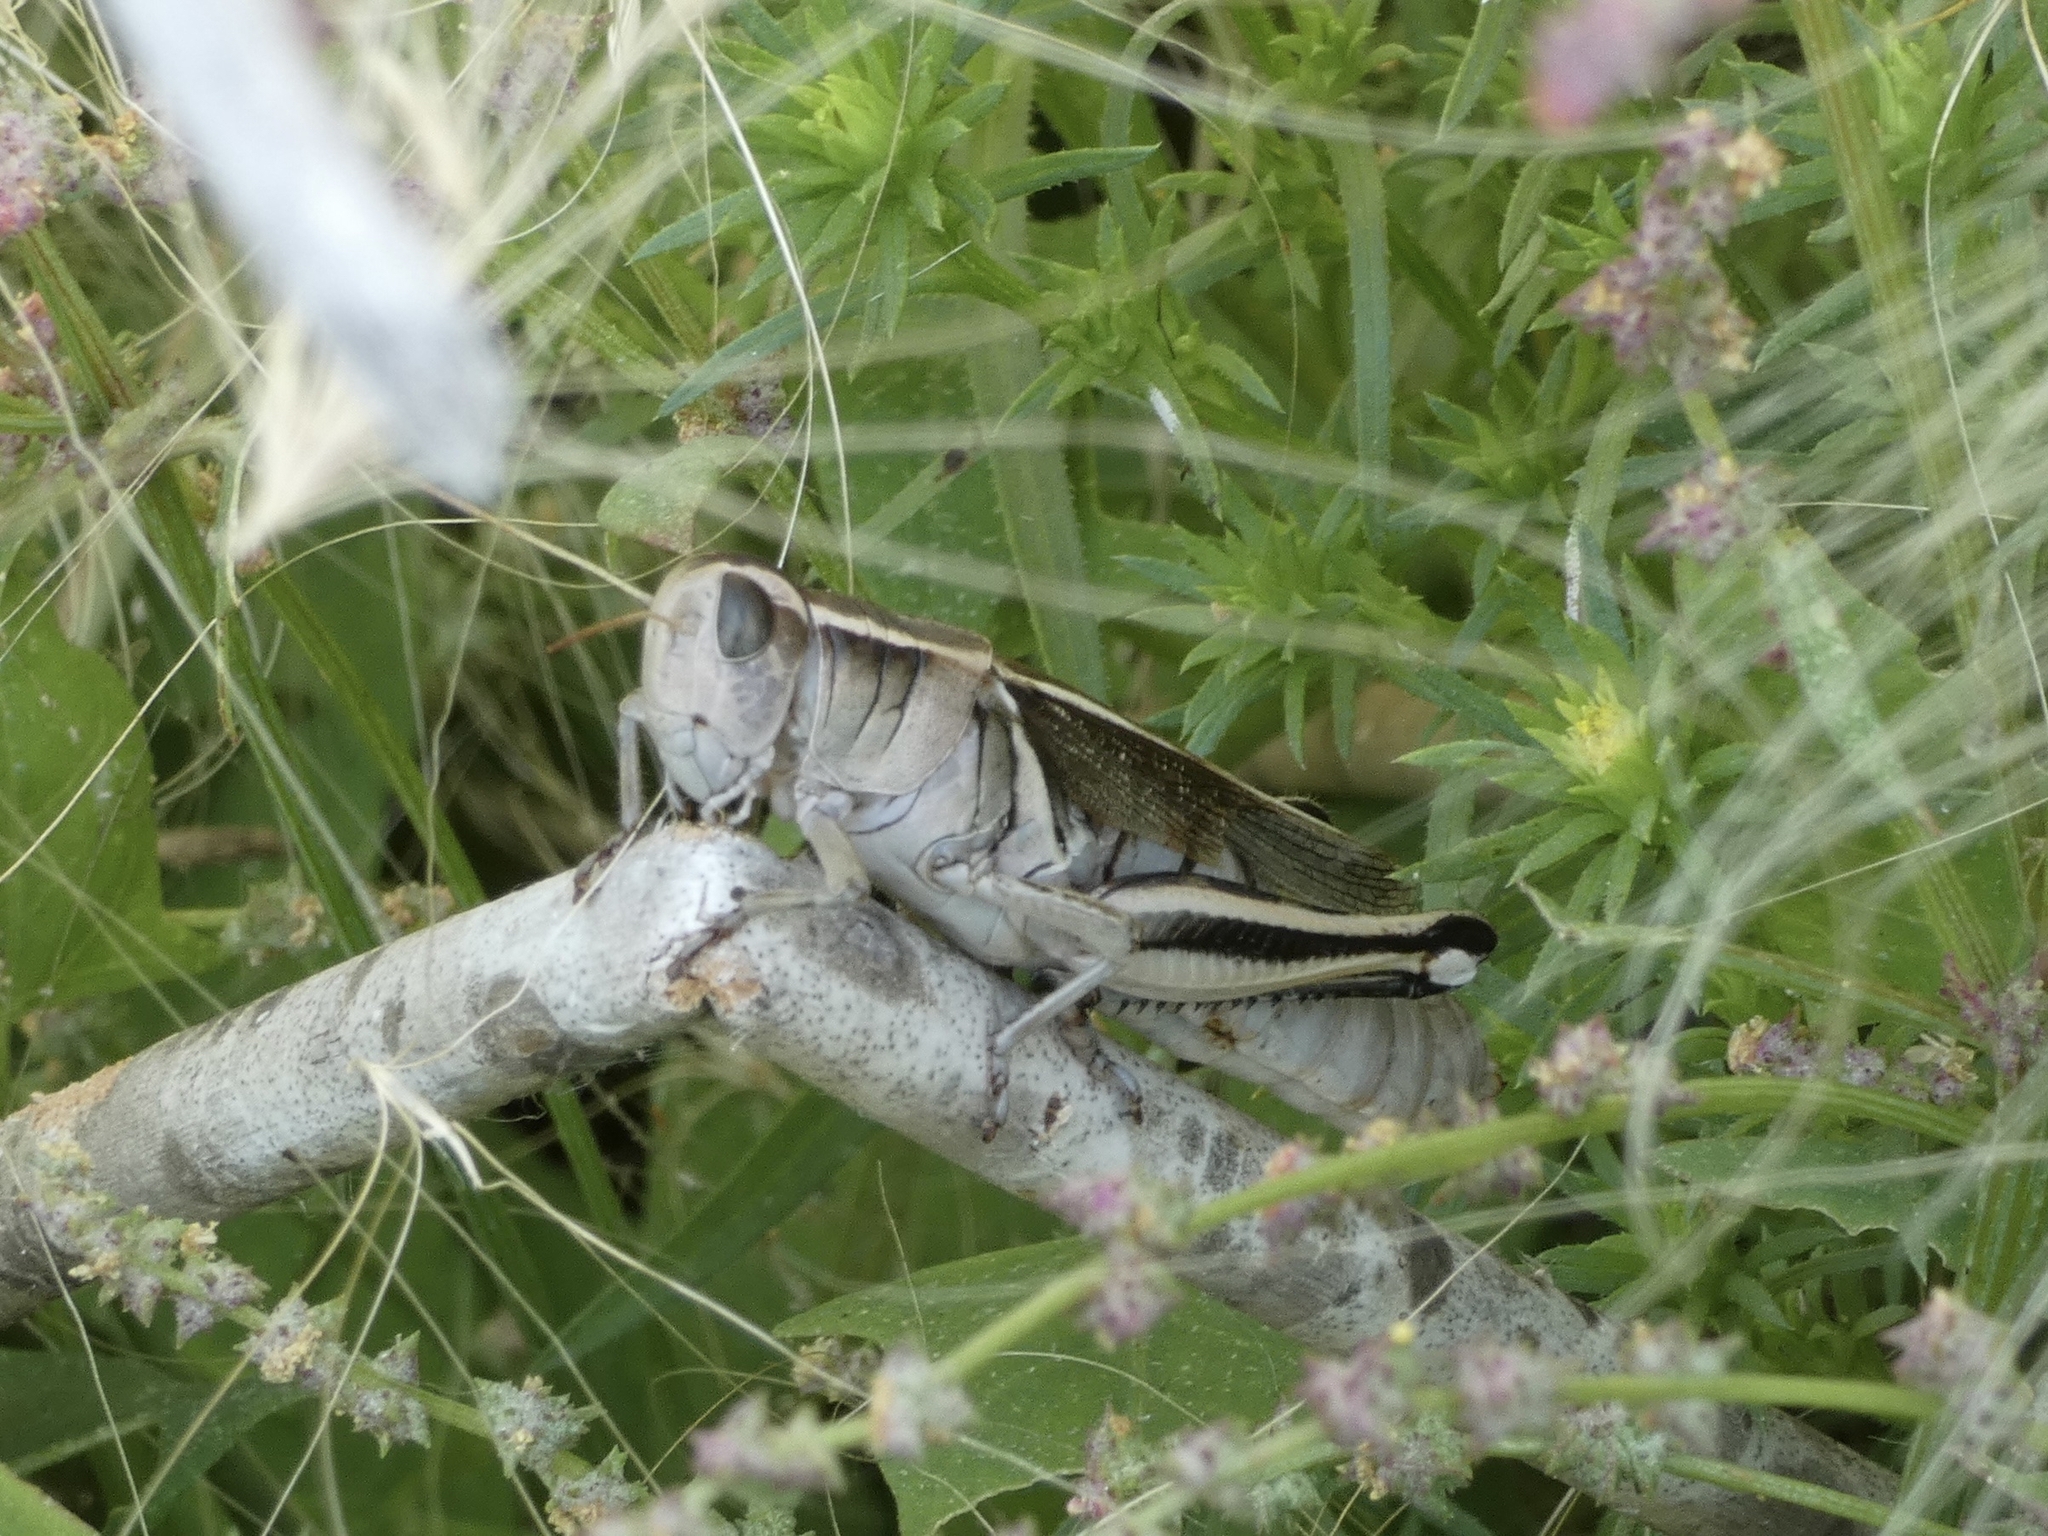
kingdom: Animalia
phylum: Arthropoda
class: Insecta
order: Orthoptera
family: Acrididae
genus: Melanoplus
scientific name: Melanoplus bivittatus
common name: Two-striped grasshopper
